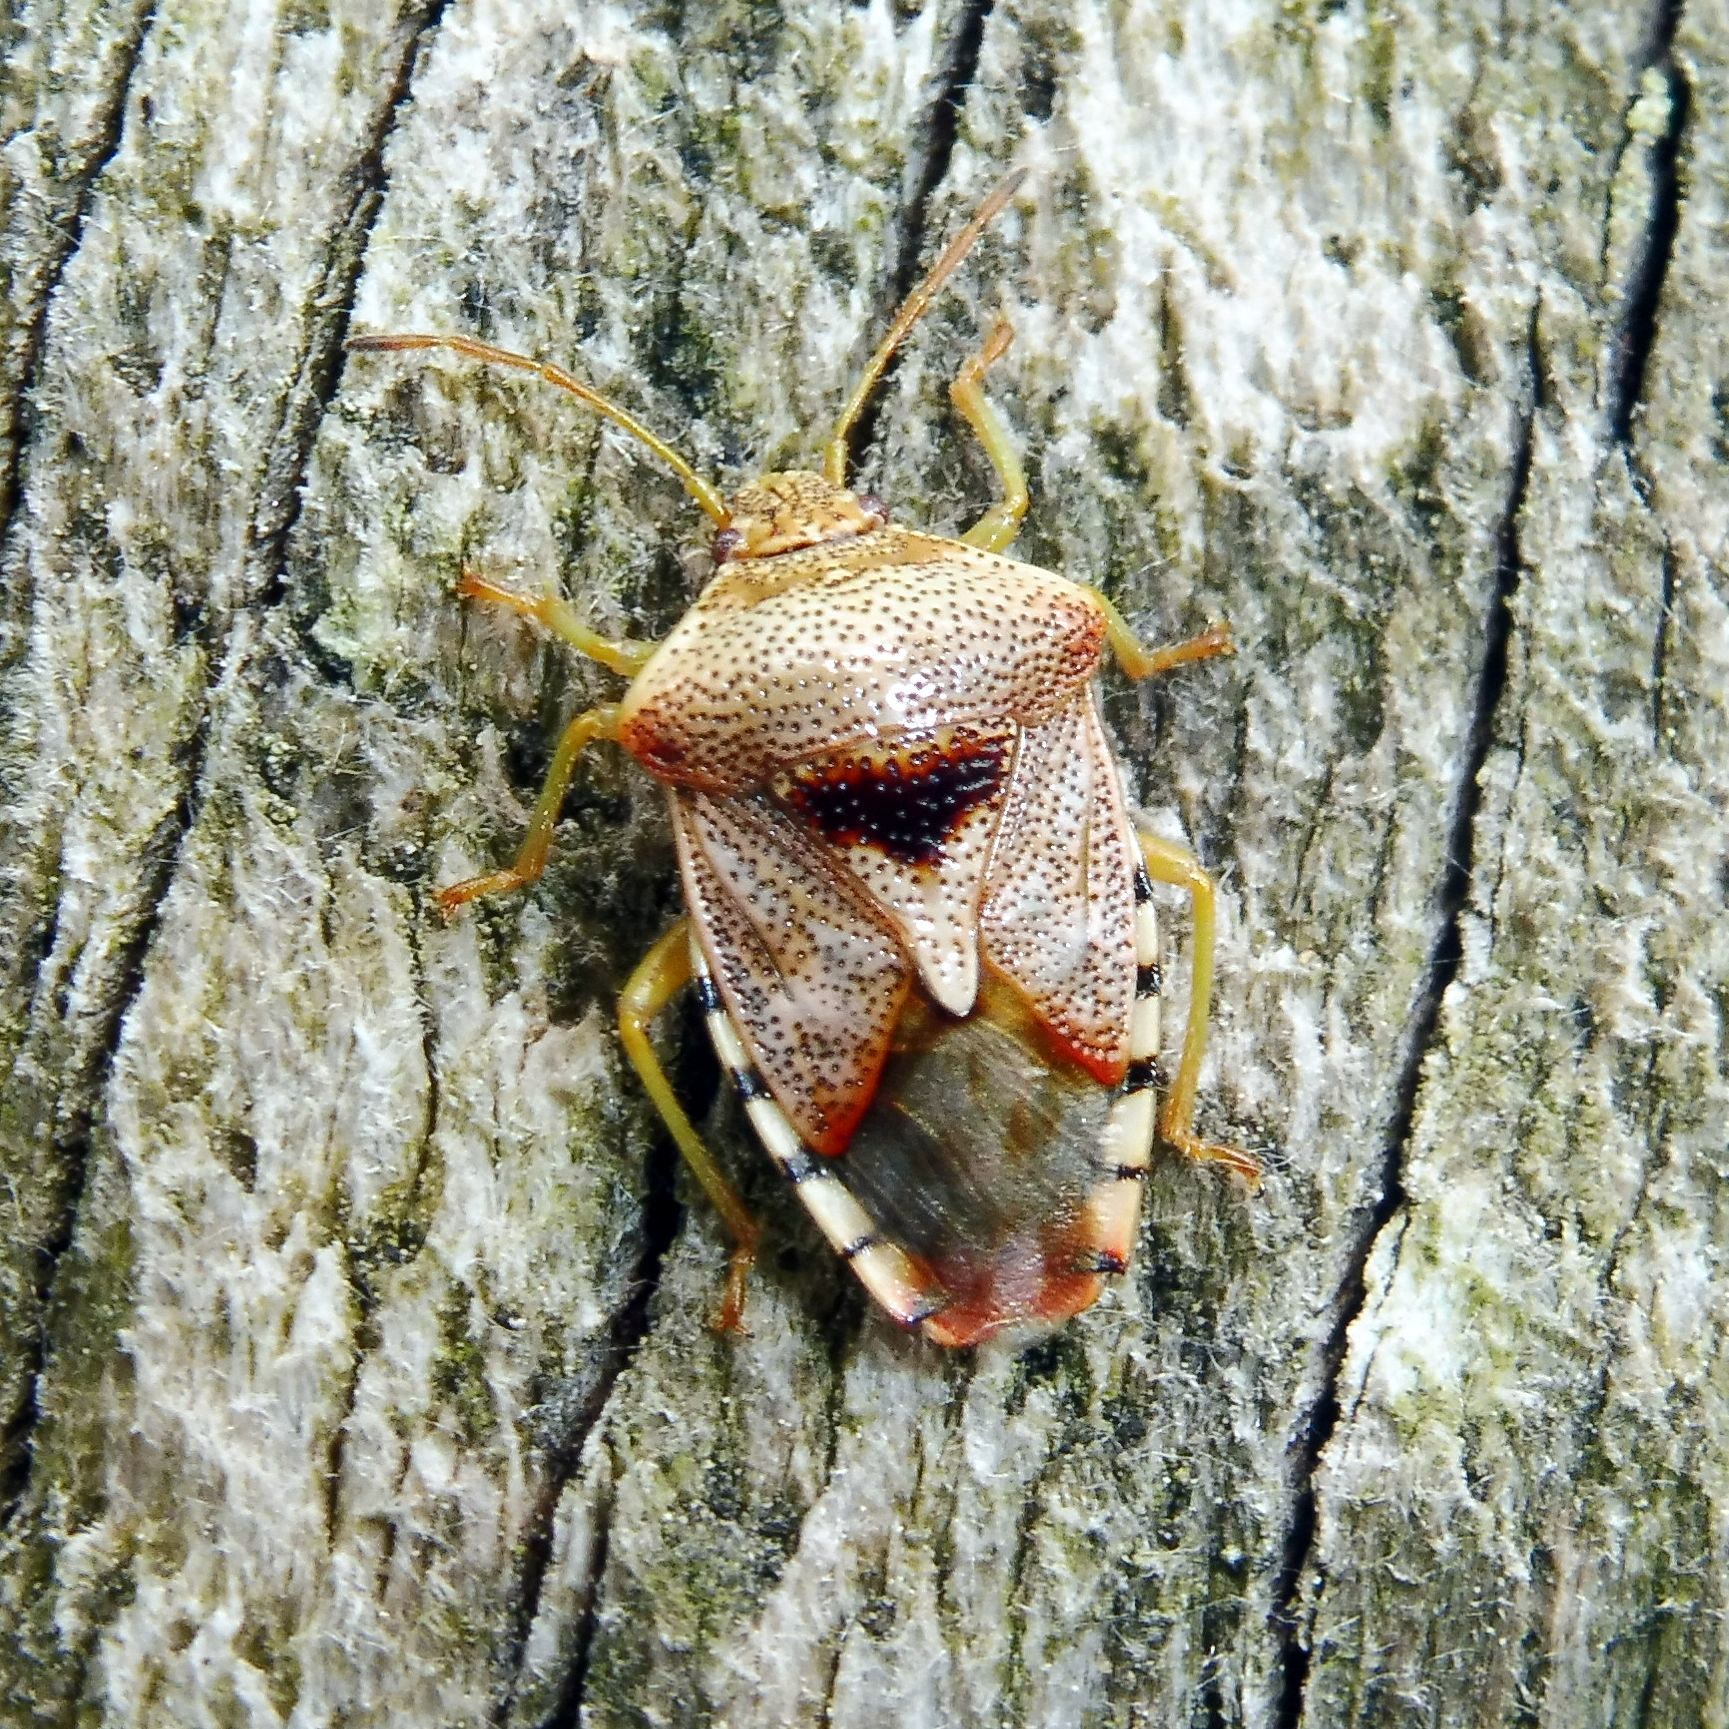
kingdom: Animalia
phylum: Arthropoda
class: Insecta
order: Hemiptera
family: Acanthosomatidae
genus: Elasmucha
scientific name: Elasmucha grisea
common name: Parent bug
